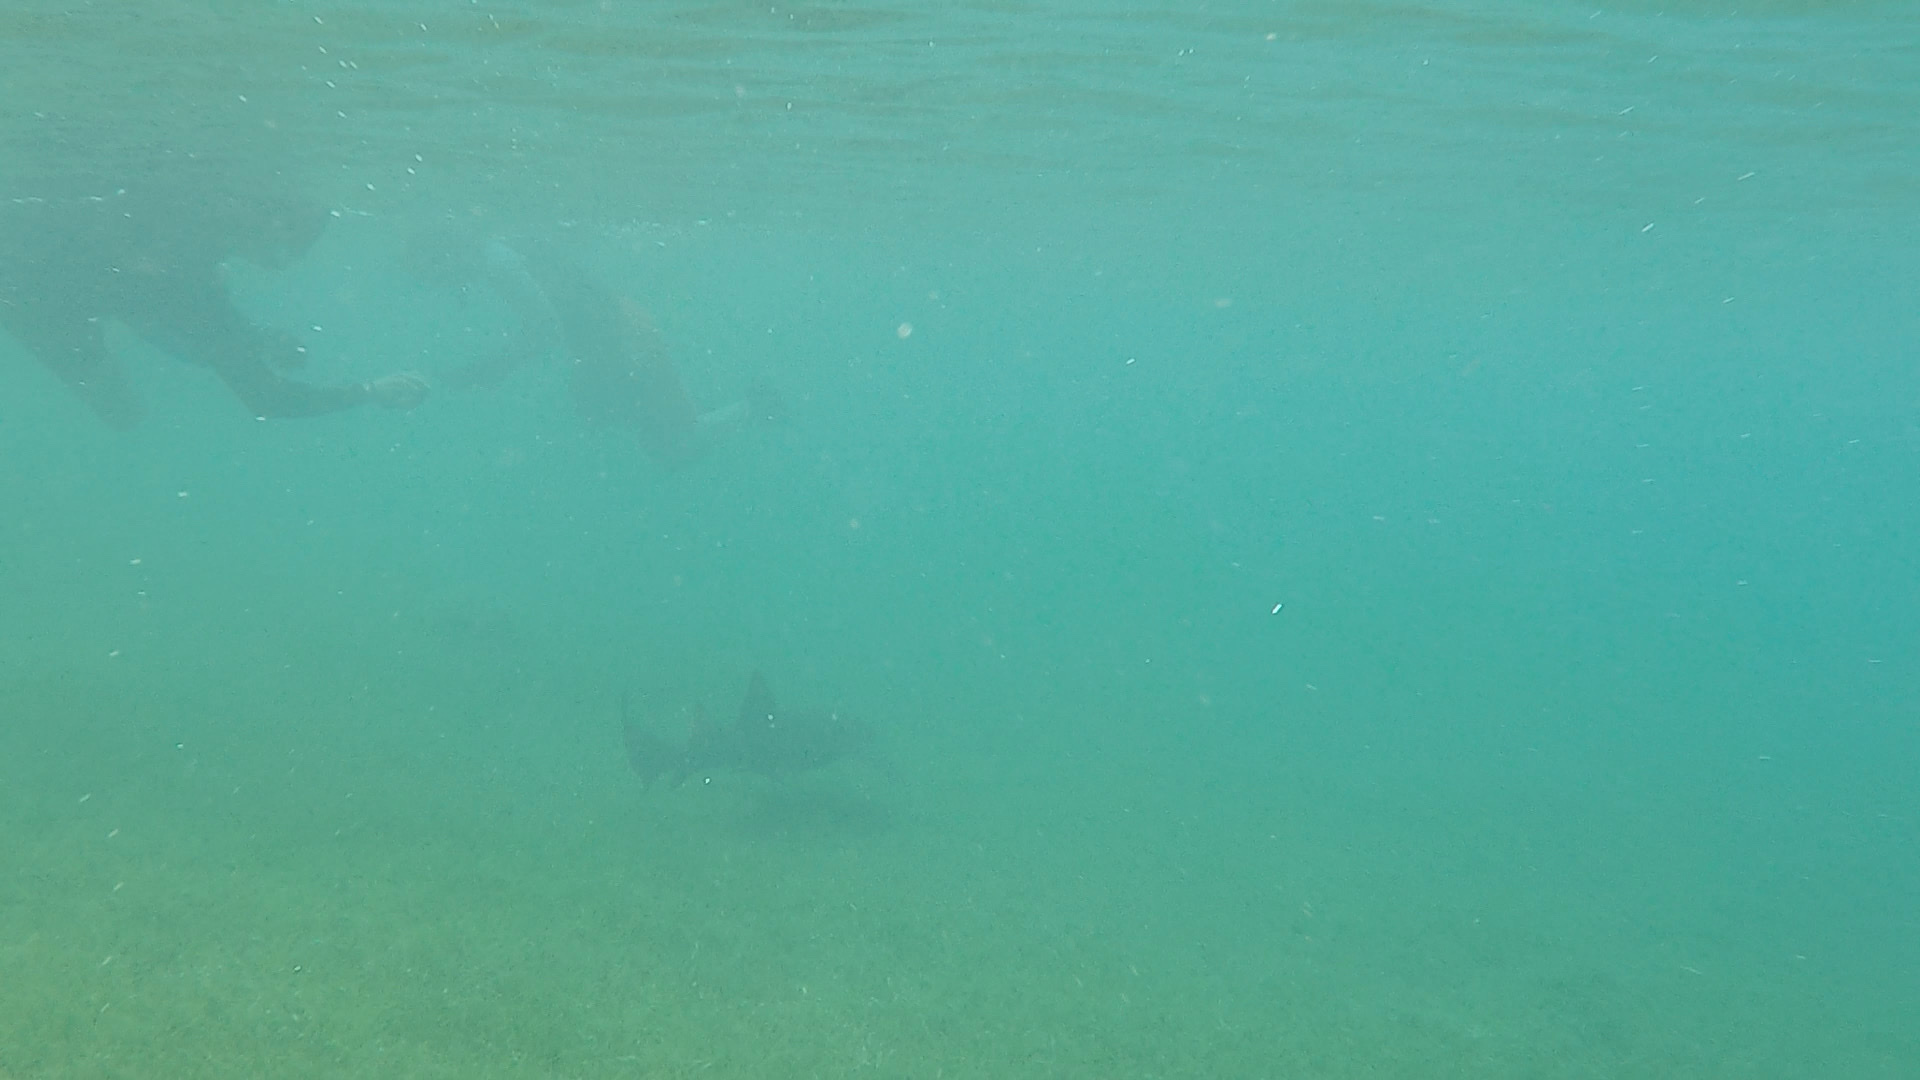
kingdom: Animalia
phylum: Chordata
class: Elasmobranchii
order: Orectolobiformes
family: Ginglymostomatidae
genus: Ginglymostoma
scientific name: Ginglymostoma cirratum
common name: Nurse shark
